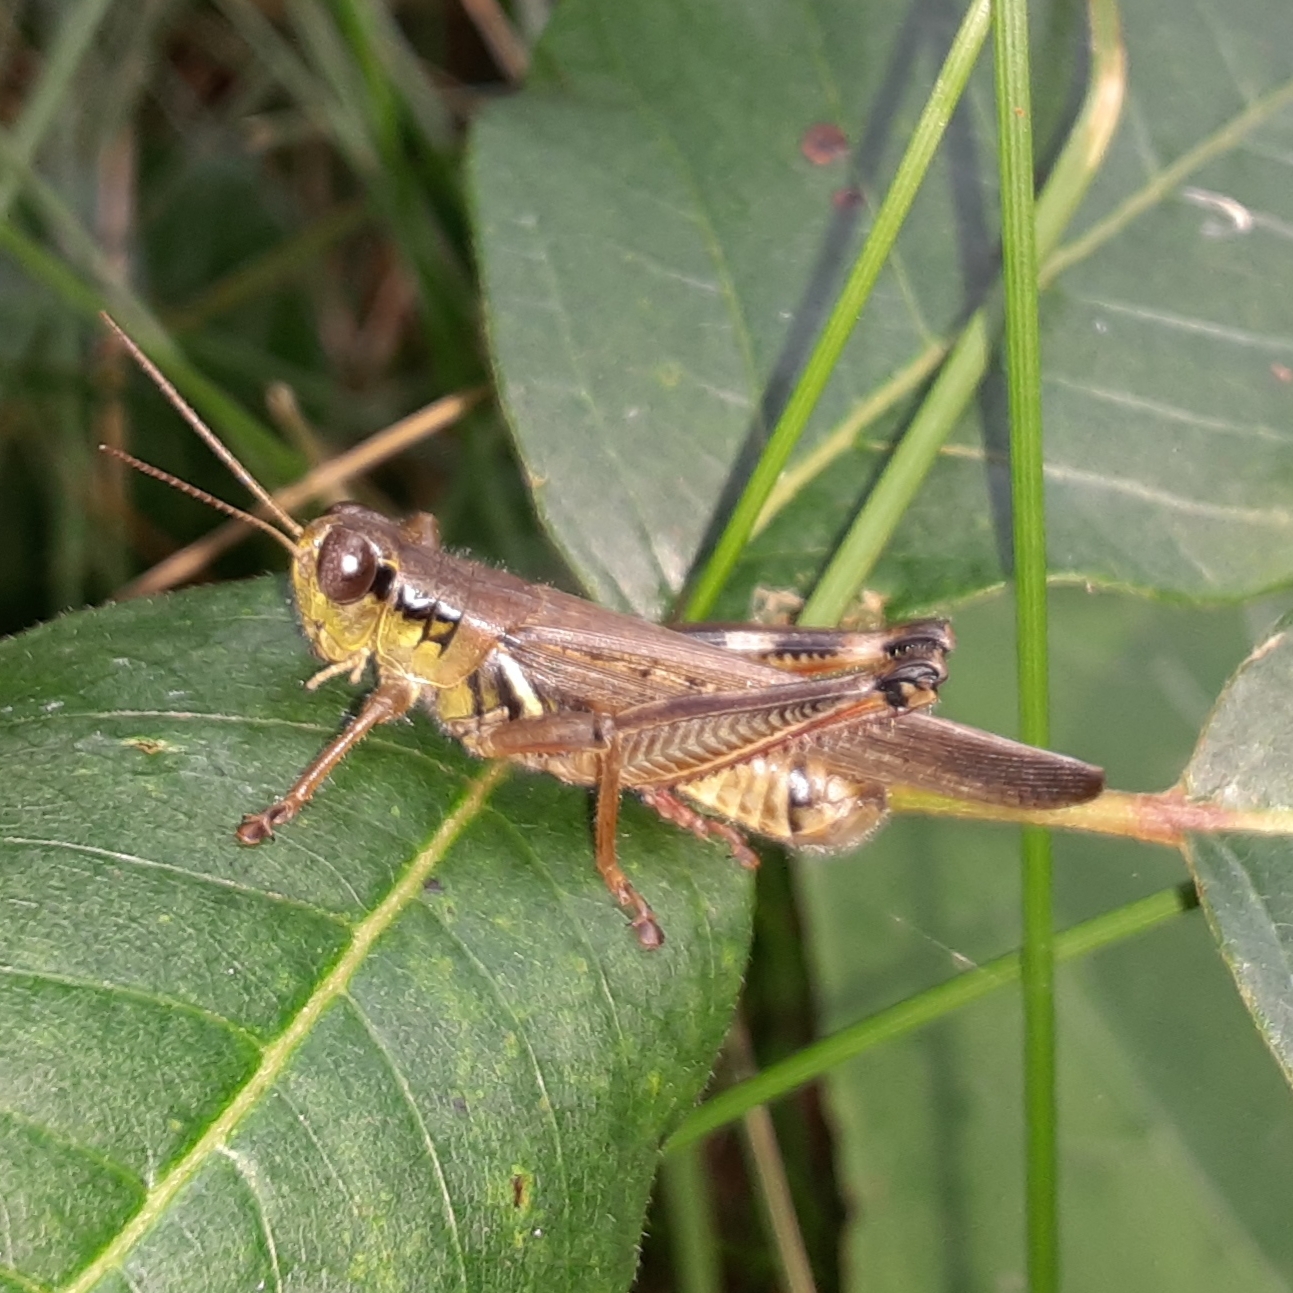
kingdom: Animalia
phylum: Arthropoda
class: Insecta
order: Orthoptera
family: Acrididae
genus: Melanoplus
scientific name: Melanoplus femurrubrum
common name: Red-legged grasshopper
